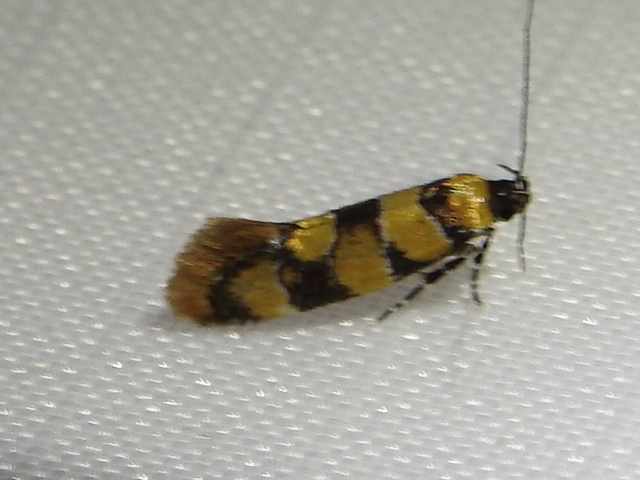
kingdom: Animalia
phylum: Arthropoda
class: Insecta
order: Lepidoptera
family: Oecophoridae
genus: Decantha
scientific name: Decantha borkhausenii
